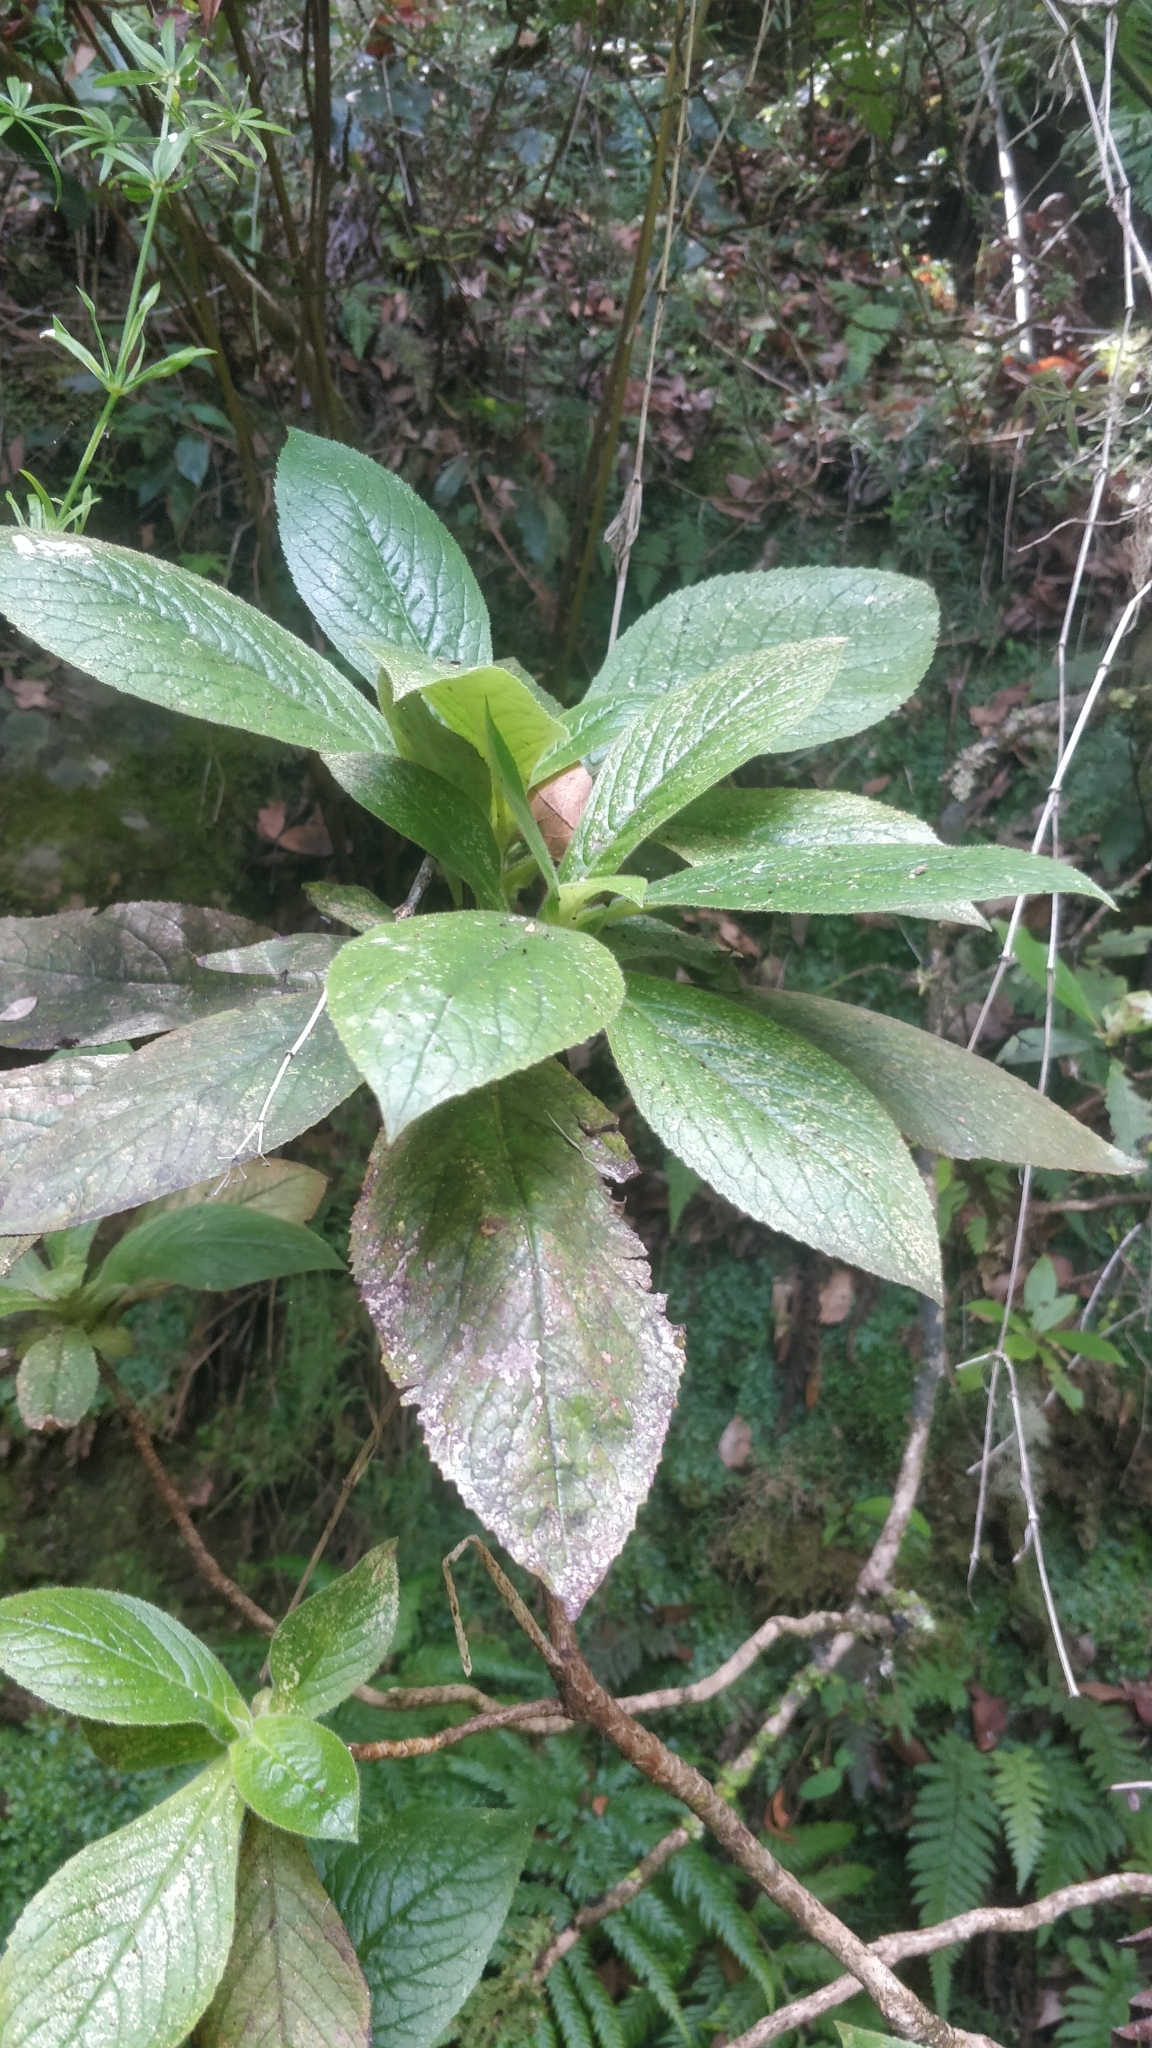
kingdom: Plantae
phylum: Tracheophyta
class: Magnoliopsida
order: Lamiales
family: Plantaginaceae
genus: Digitalis
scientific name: Digitalis sceptrum
